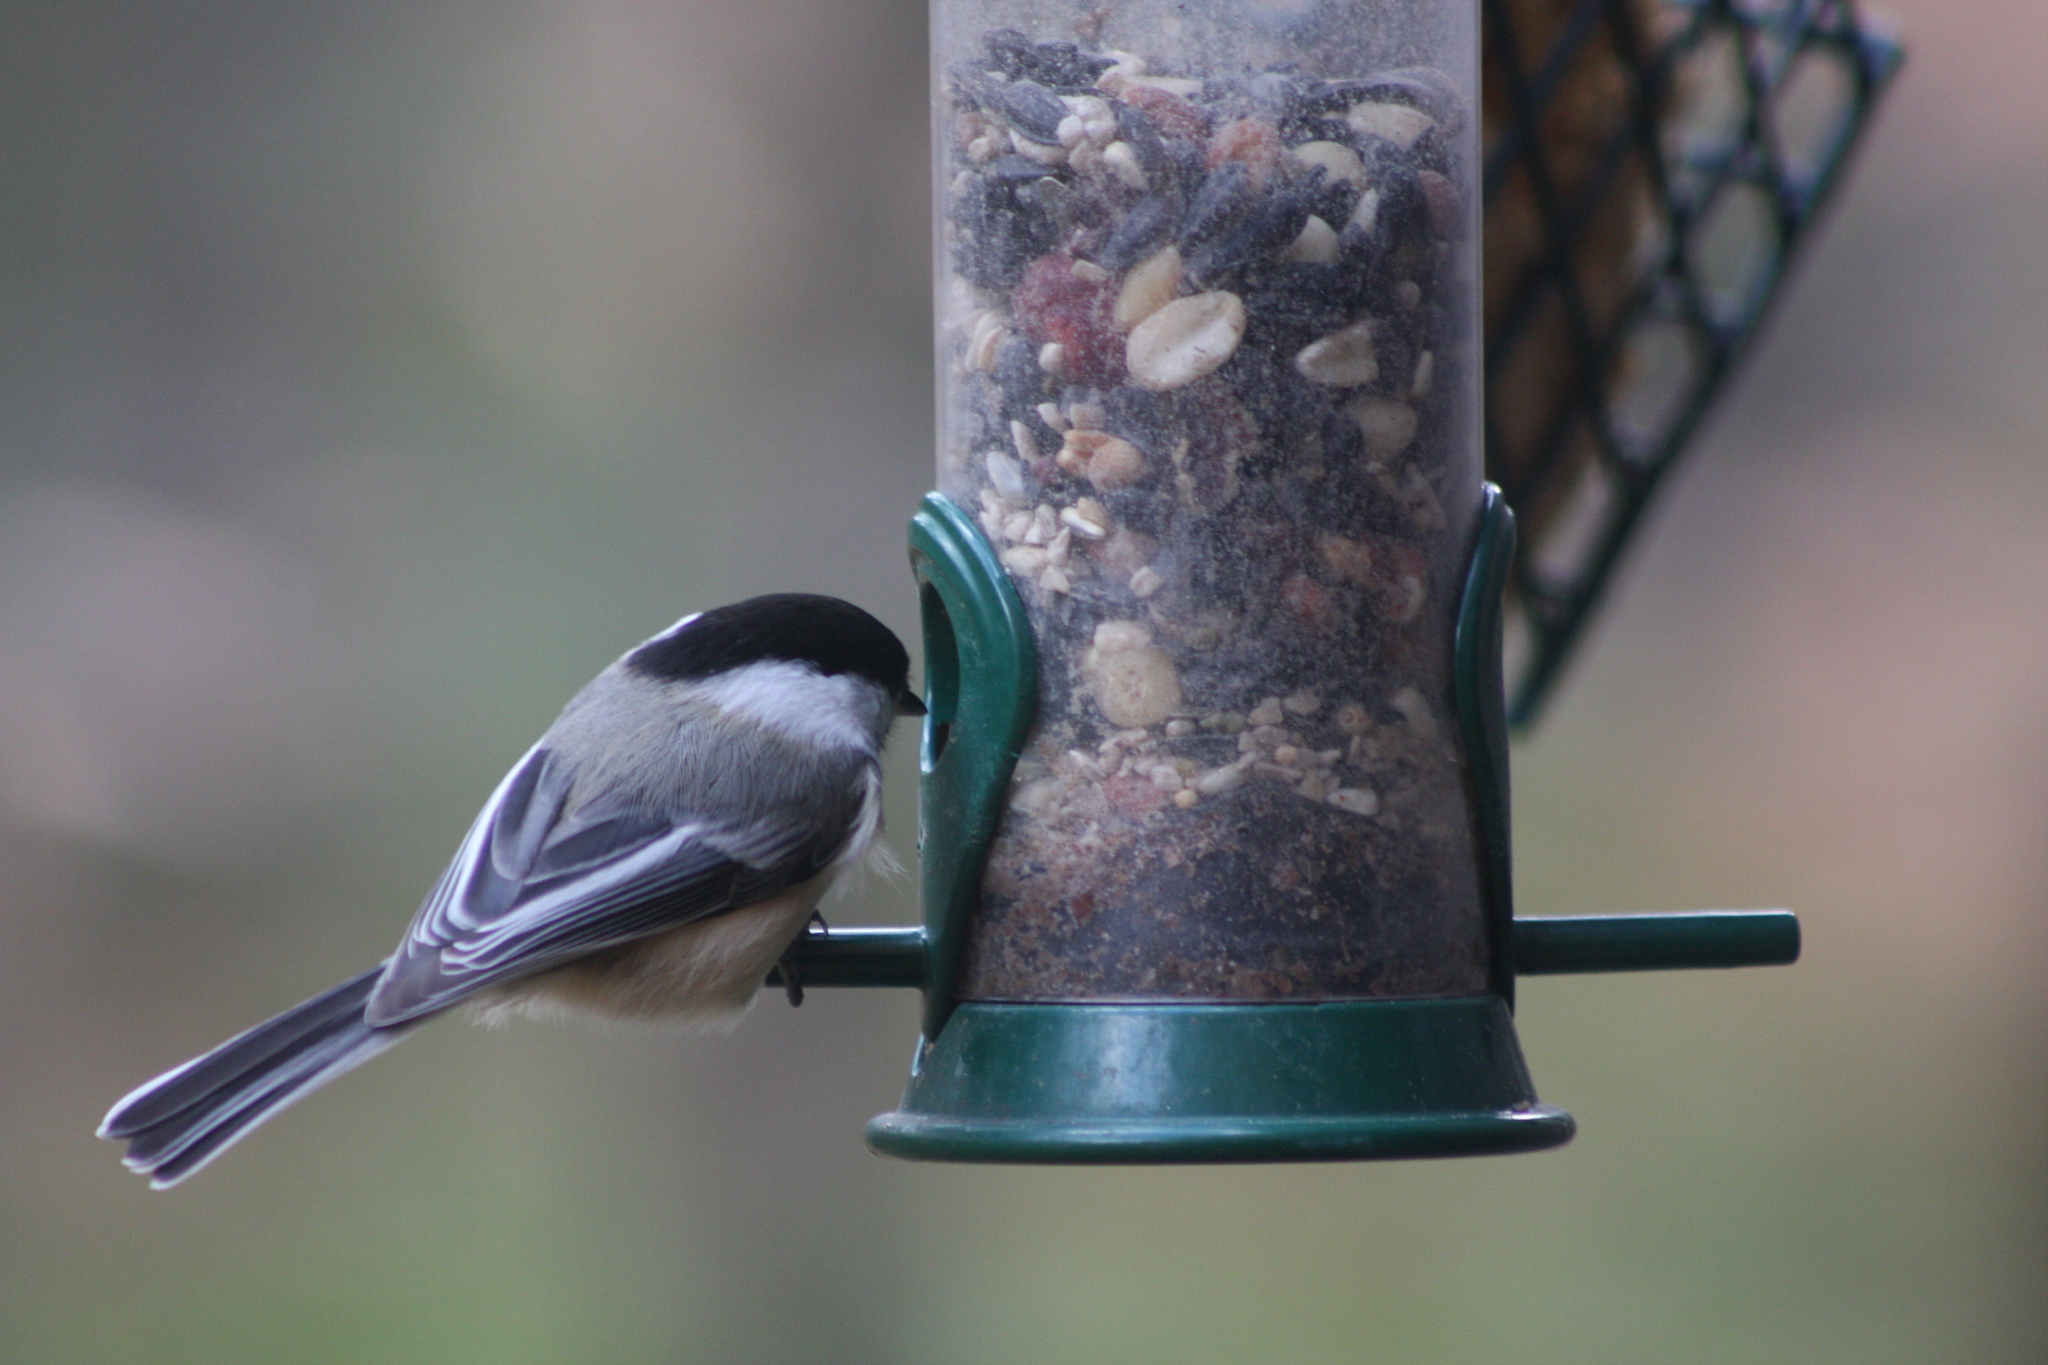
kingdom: Animalia
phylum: Chordata
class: Aves
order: Passeriformes
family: Paridae
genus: Poecile
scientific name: Poecile atricapillus
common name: Black-capped chickadee
